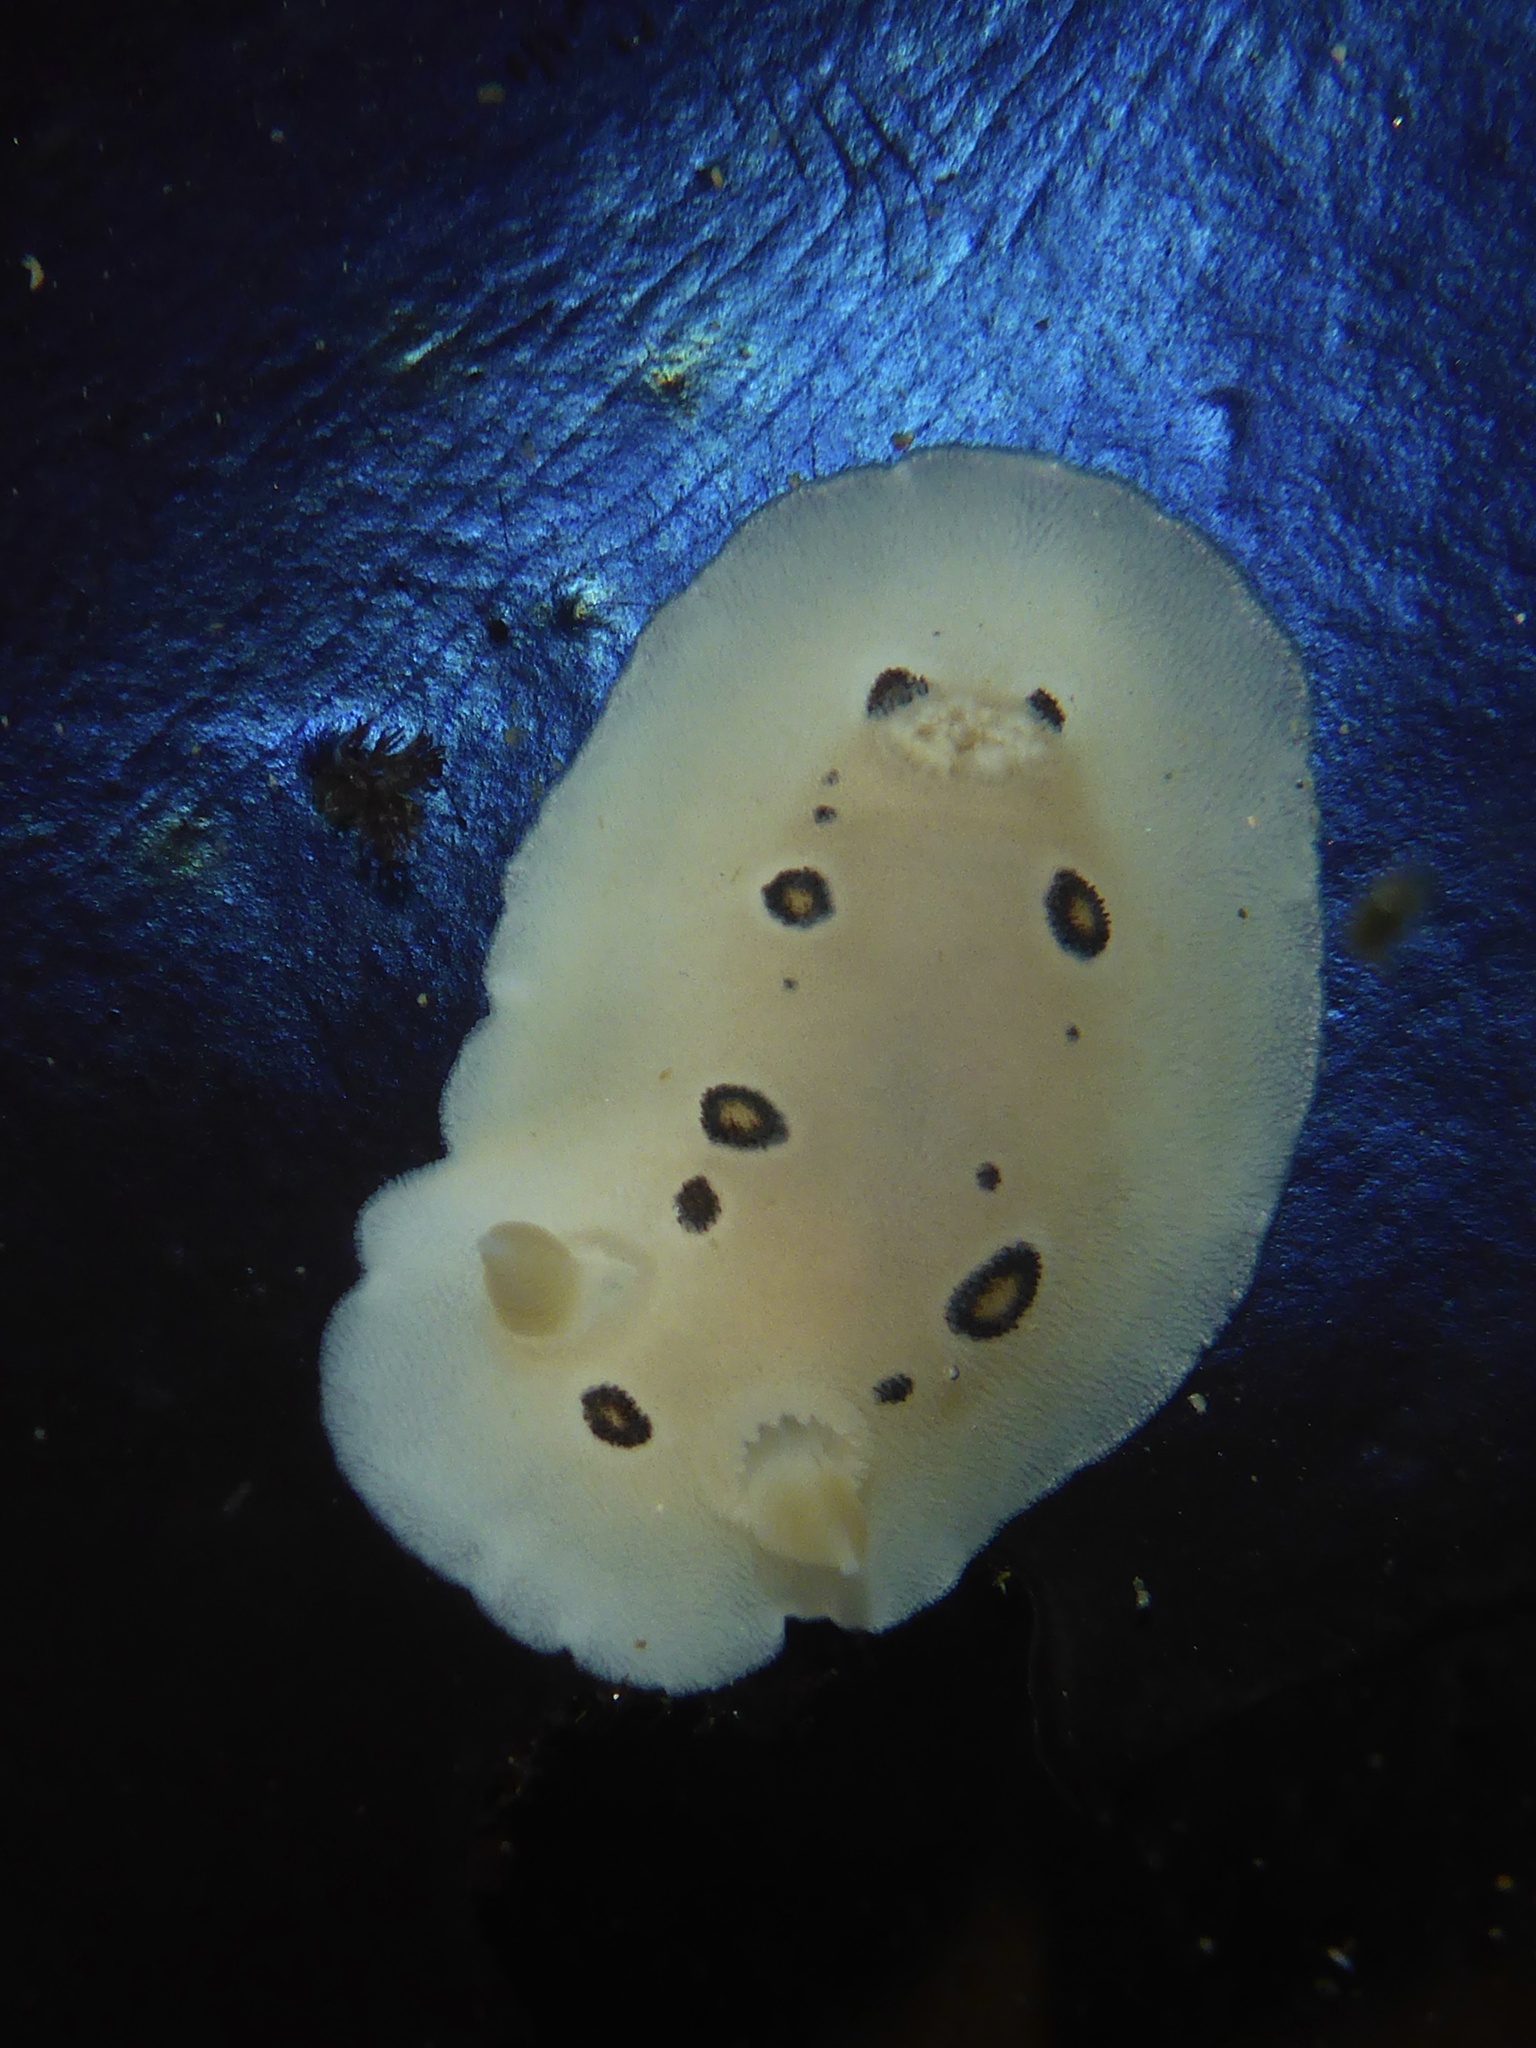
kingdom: Animalia
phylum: Mollusca
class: Gastropoda
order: Nudibranchia
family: Discodorididae
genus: Diaulula
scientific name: Diaulula sandiegensis
